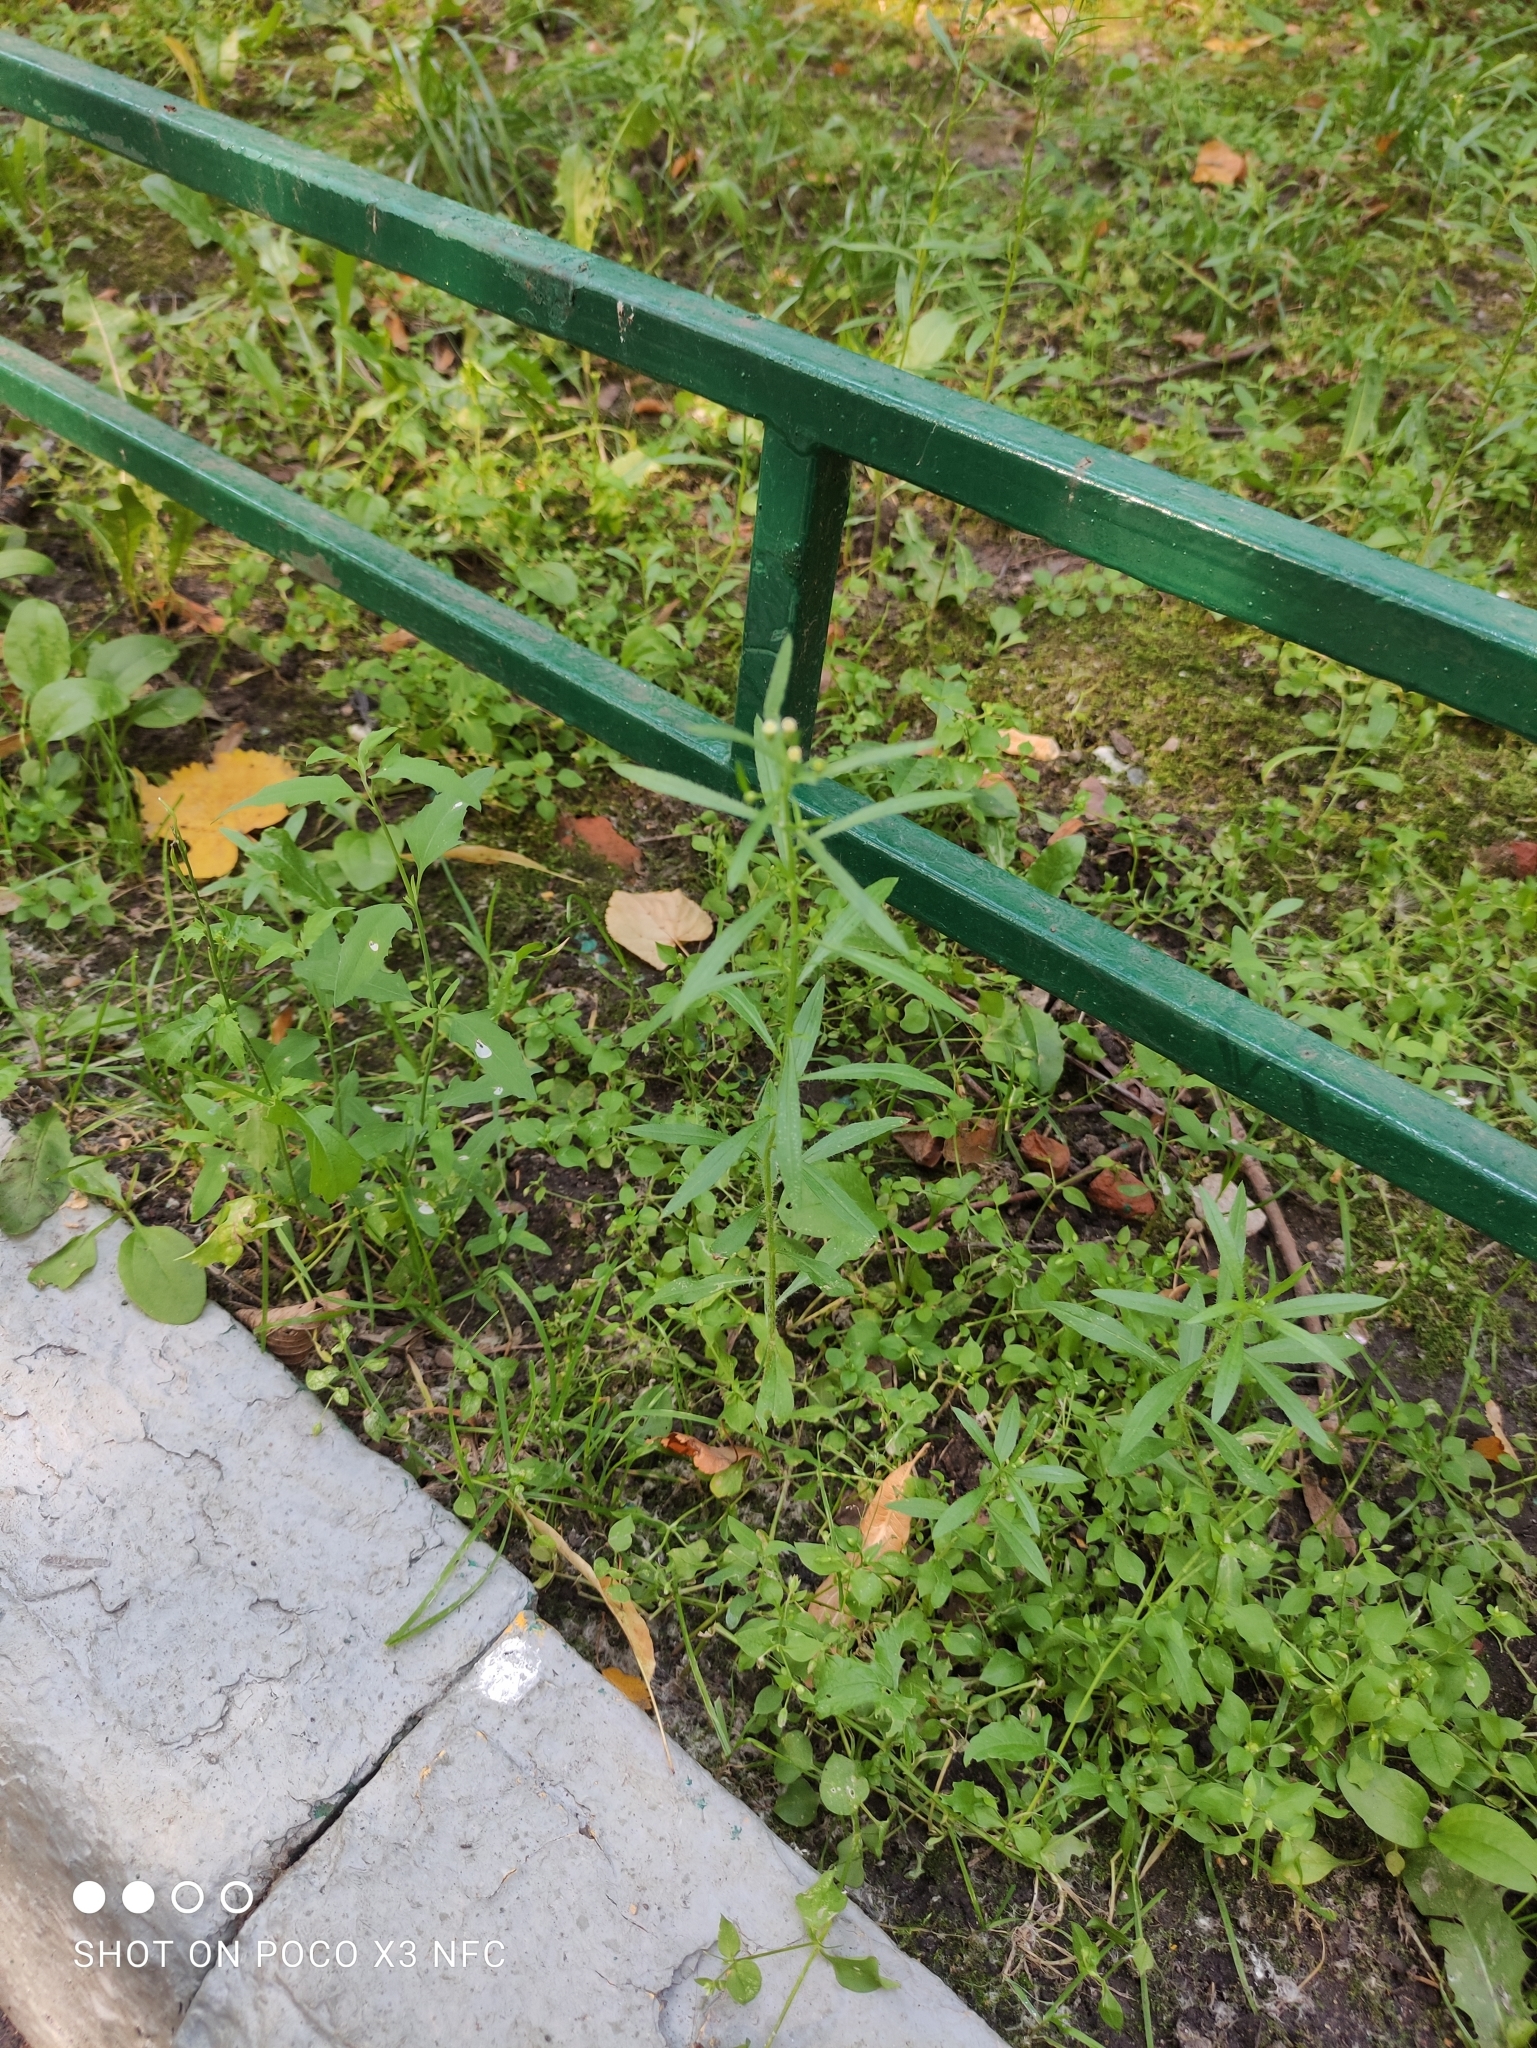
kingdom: Plantae
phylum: Tracheophyta
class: Magnoliopsida
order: Asterales
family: Asteraceae
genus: Erigeron
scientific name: Erigeron canadensis
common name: Canadian fleabane
